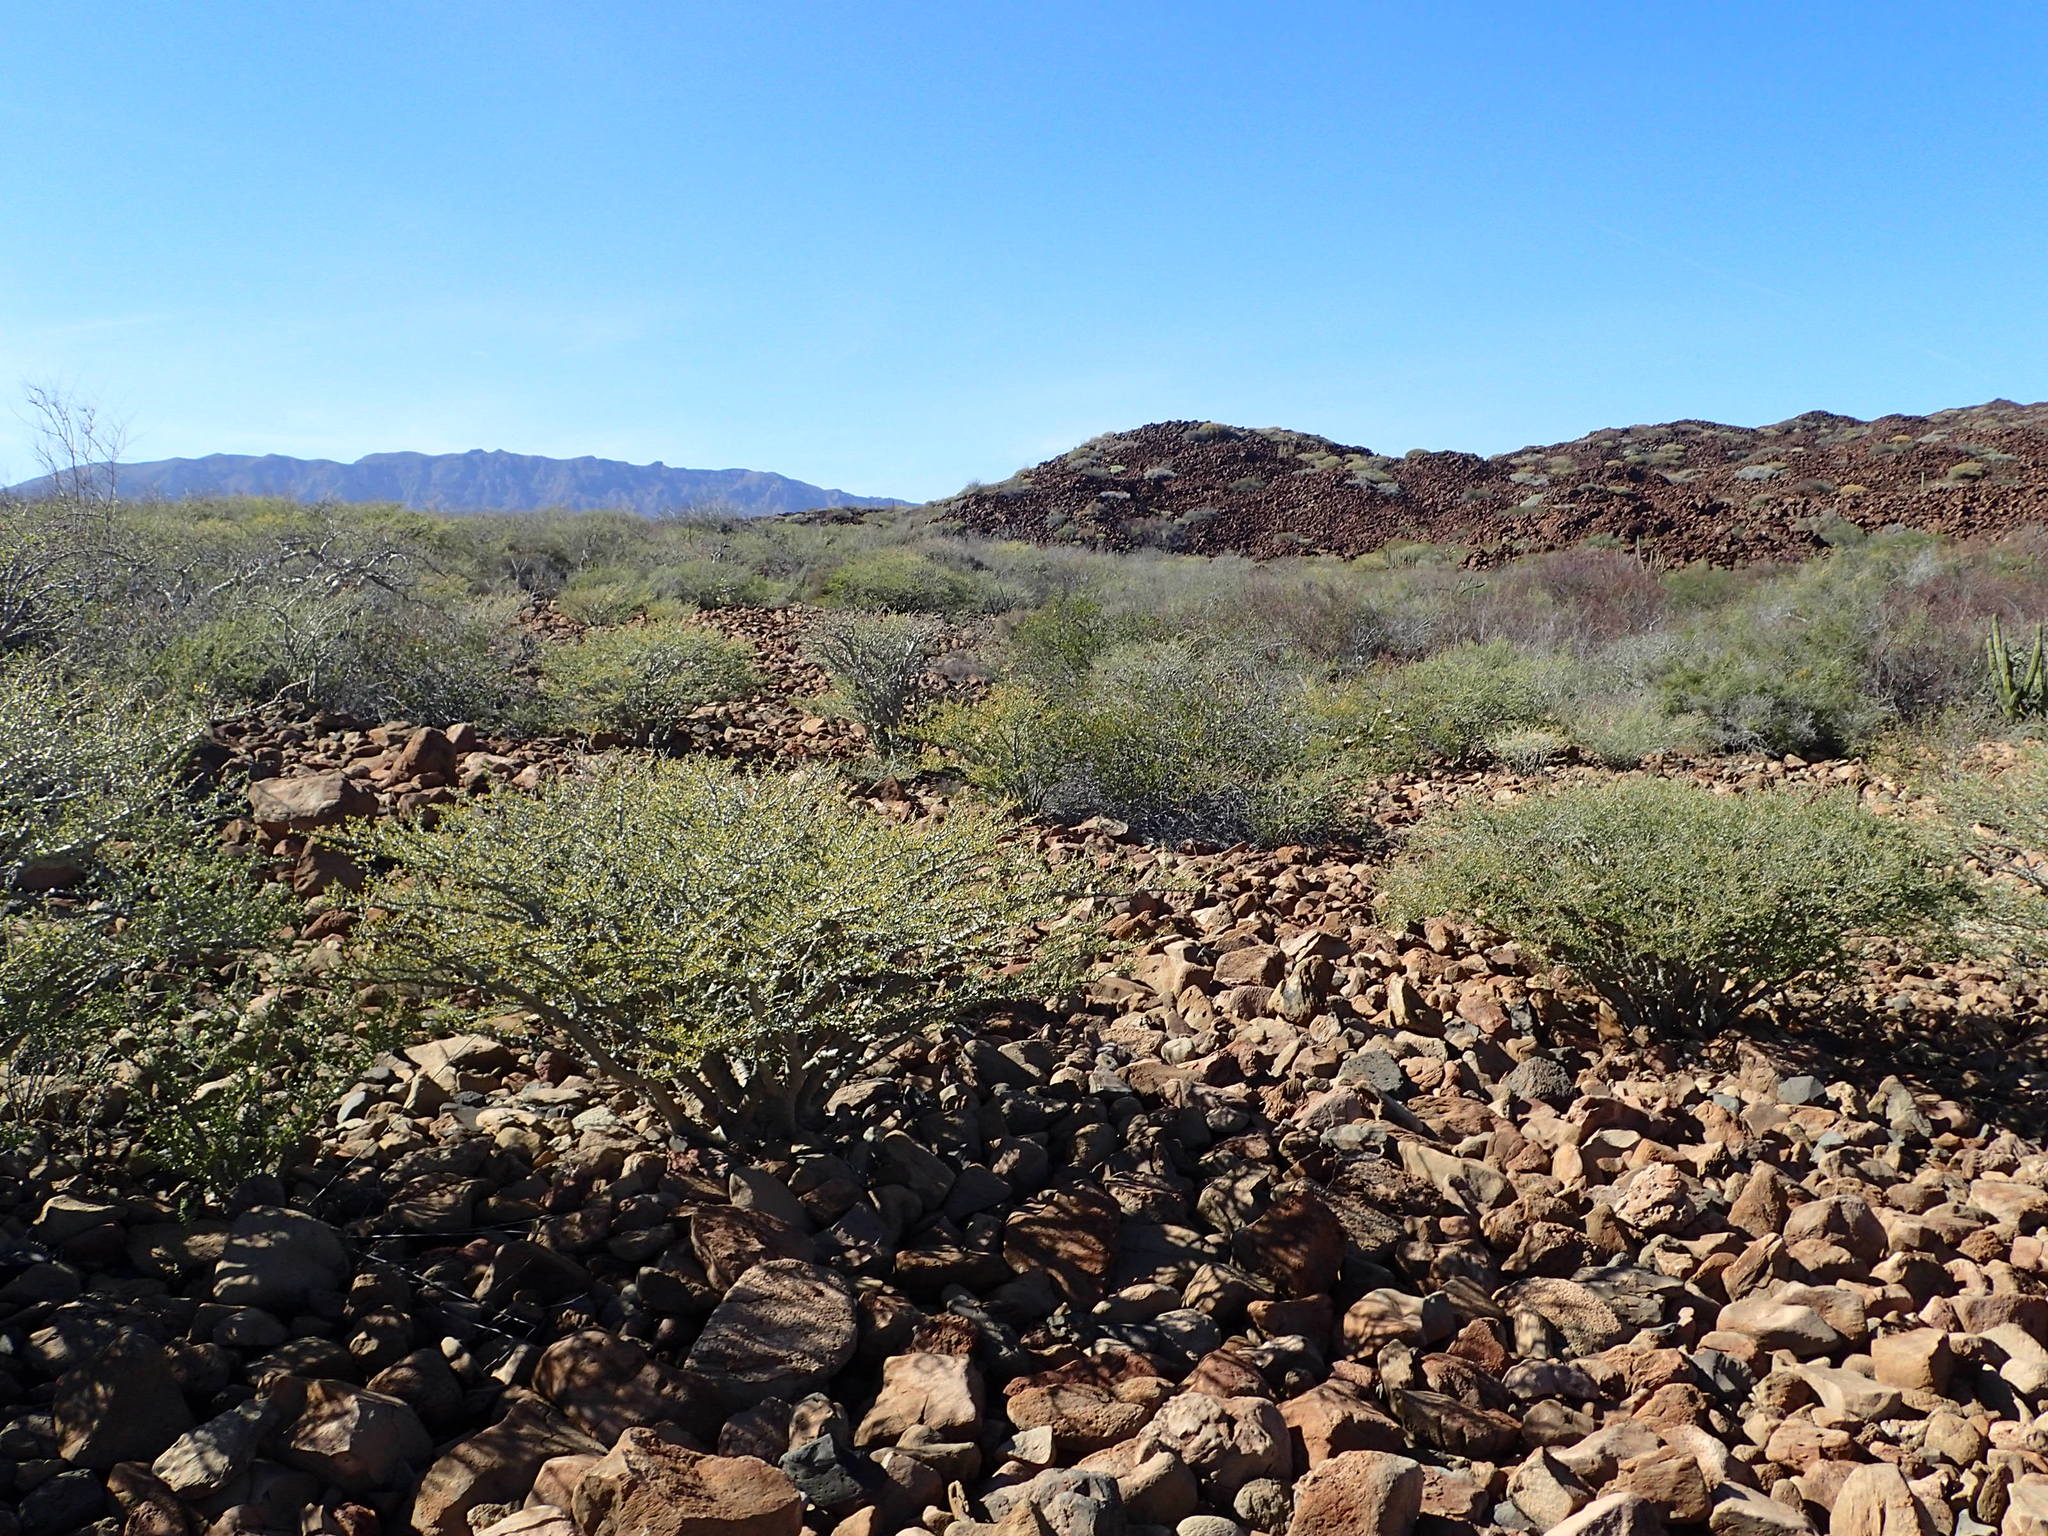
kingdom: Plantae
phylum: Tracheophyta
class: Magnoliopsida
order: Malpighiales
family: Euphorbiaceae
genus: Jatropha
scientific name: Jatropha cuneata
